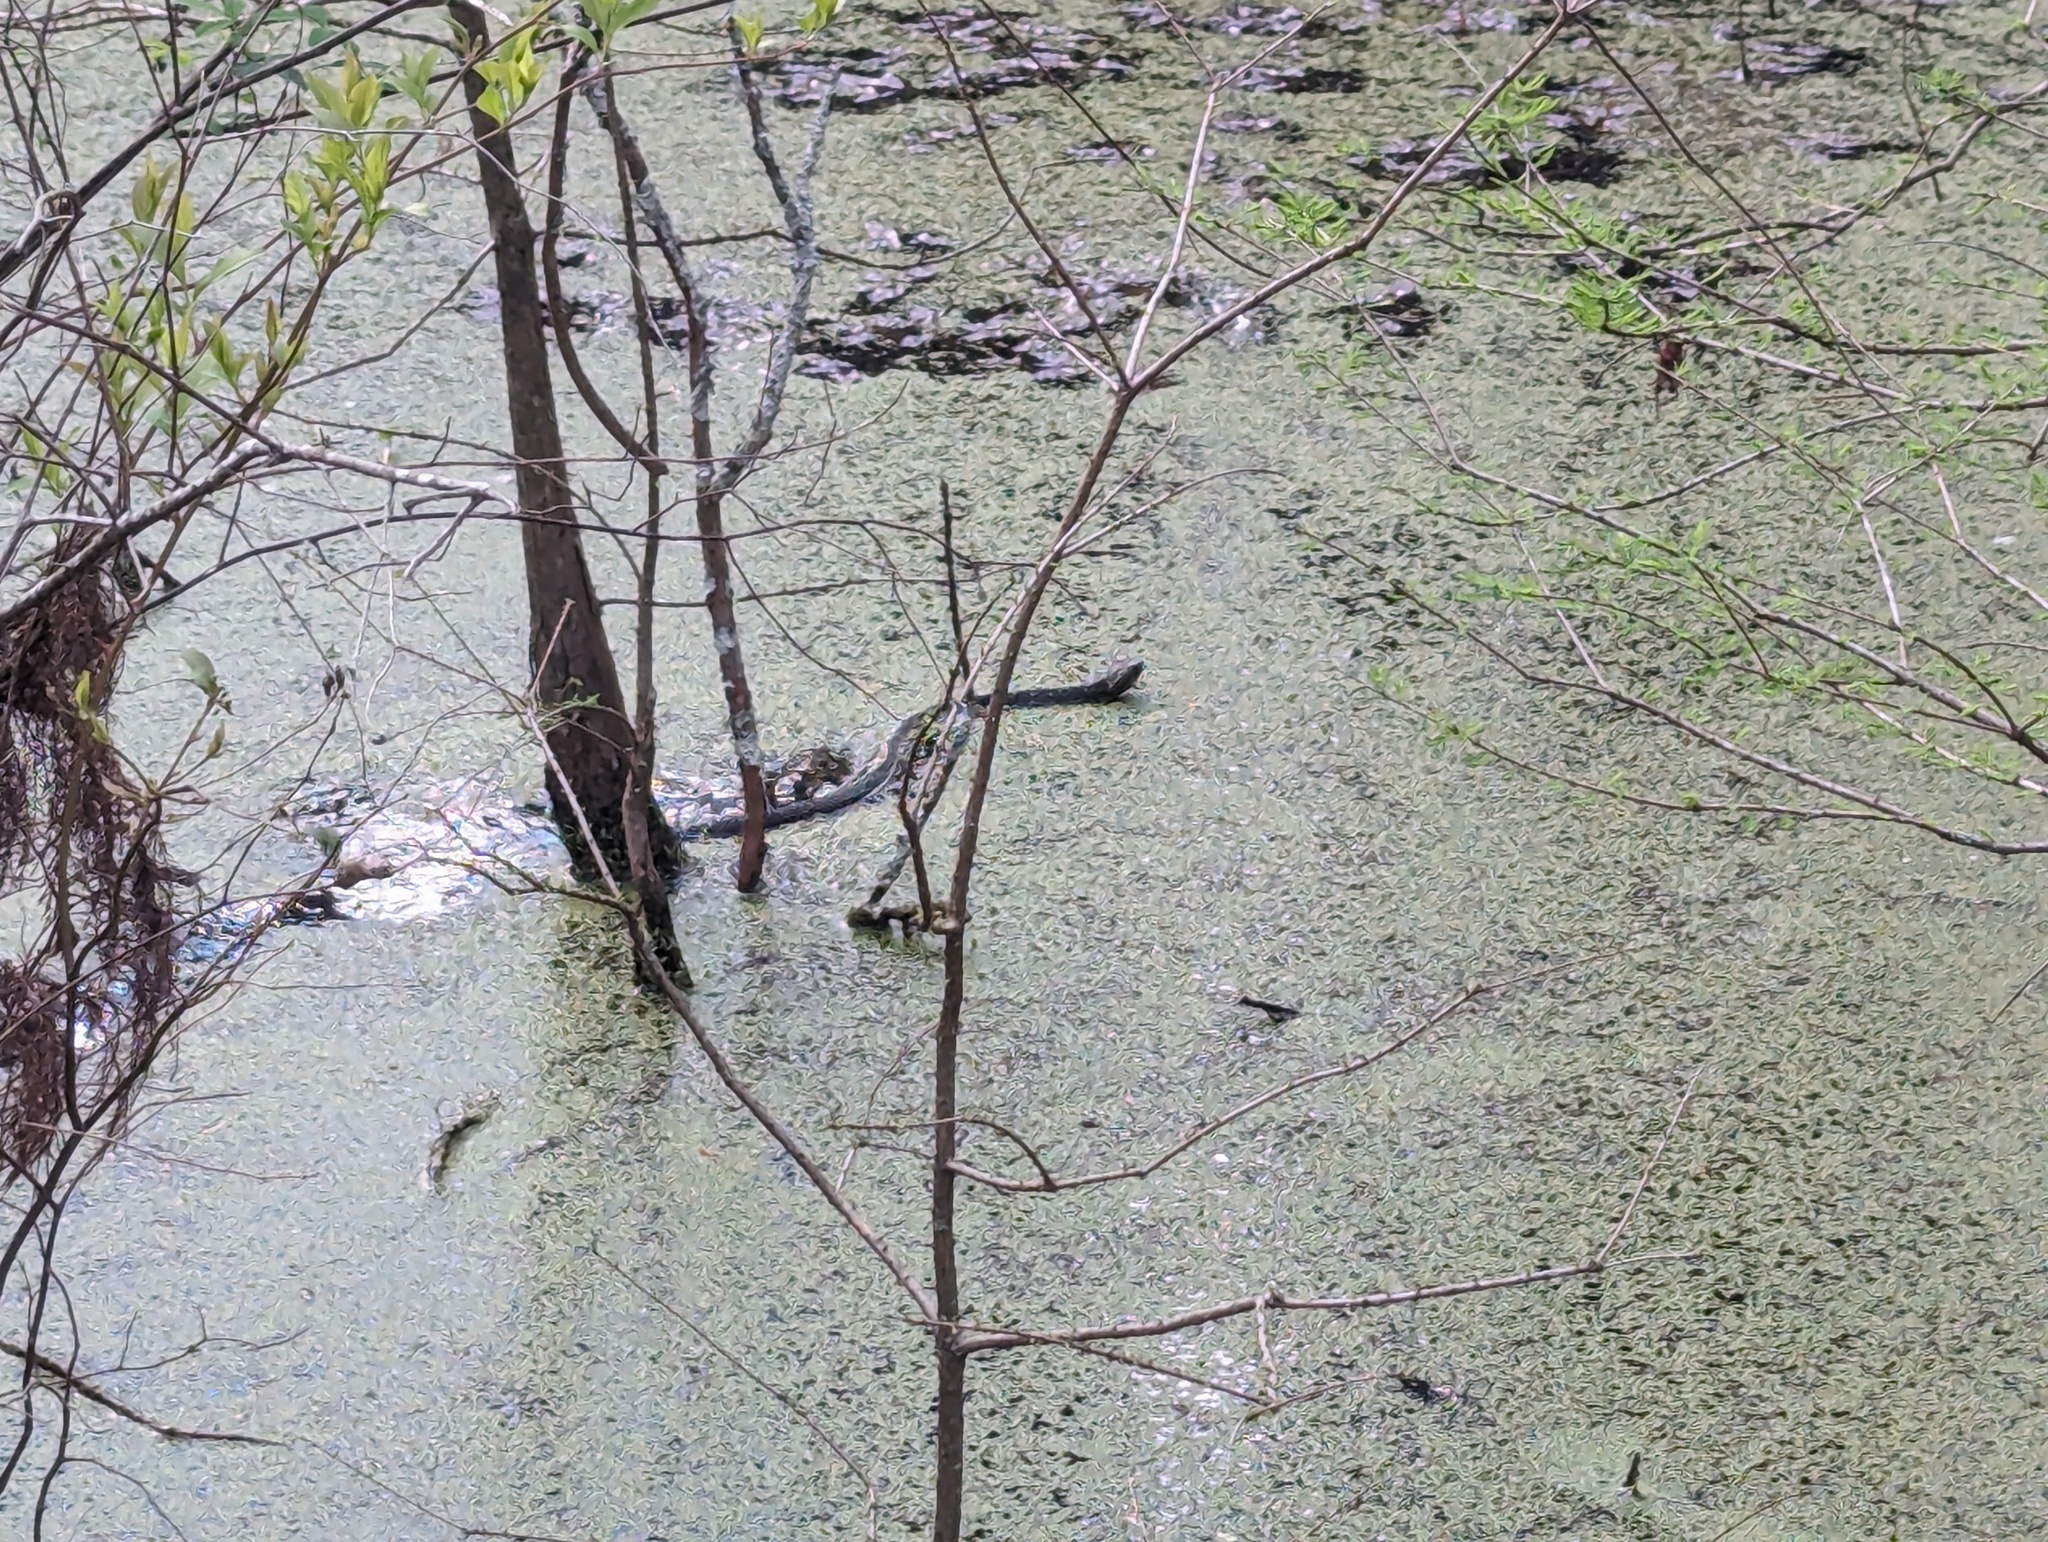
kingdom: Animalia
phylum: Chordata
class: Squamata
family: Viperidae
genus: Agkistrodon
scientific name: Agkistrodon piscivorus
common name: Cottonmouth
